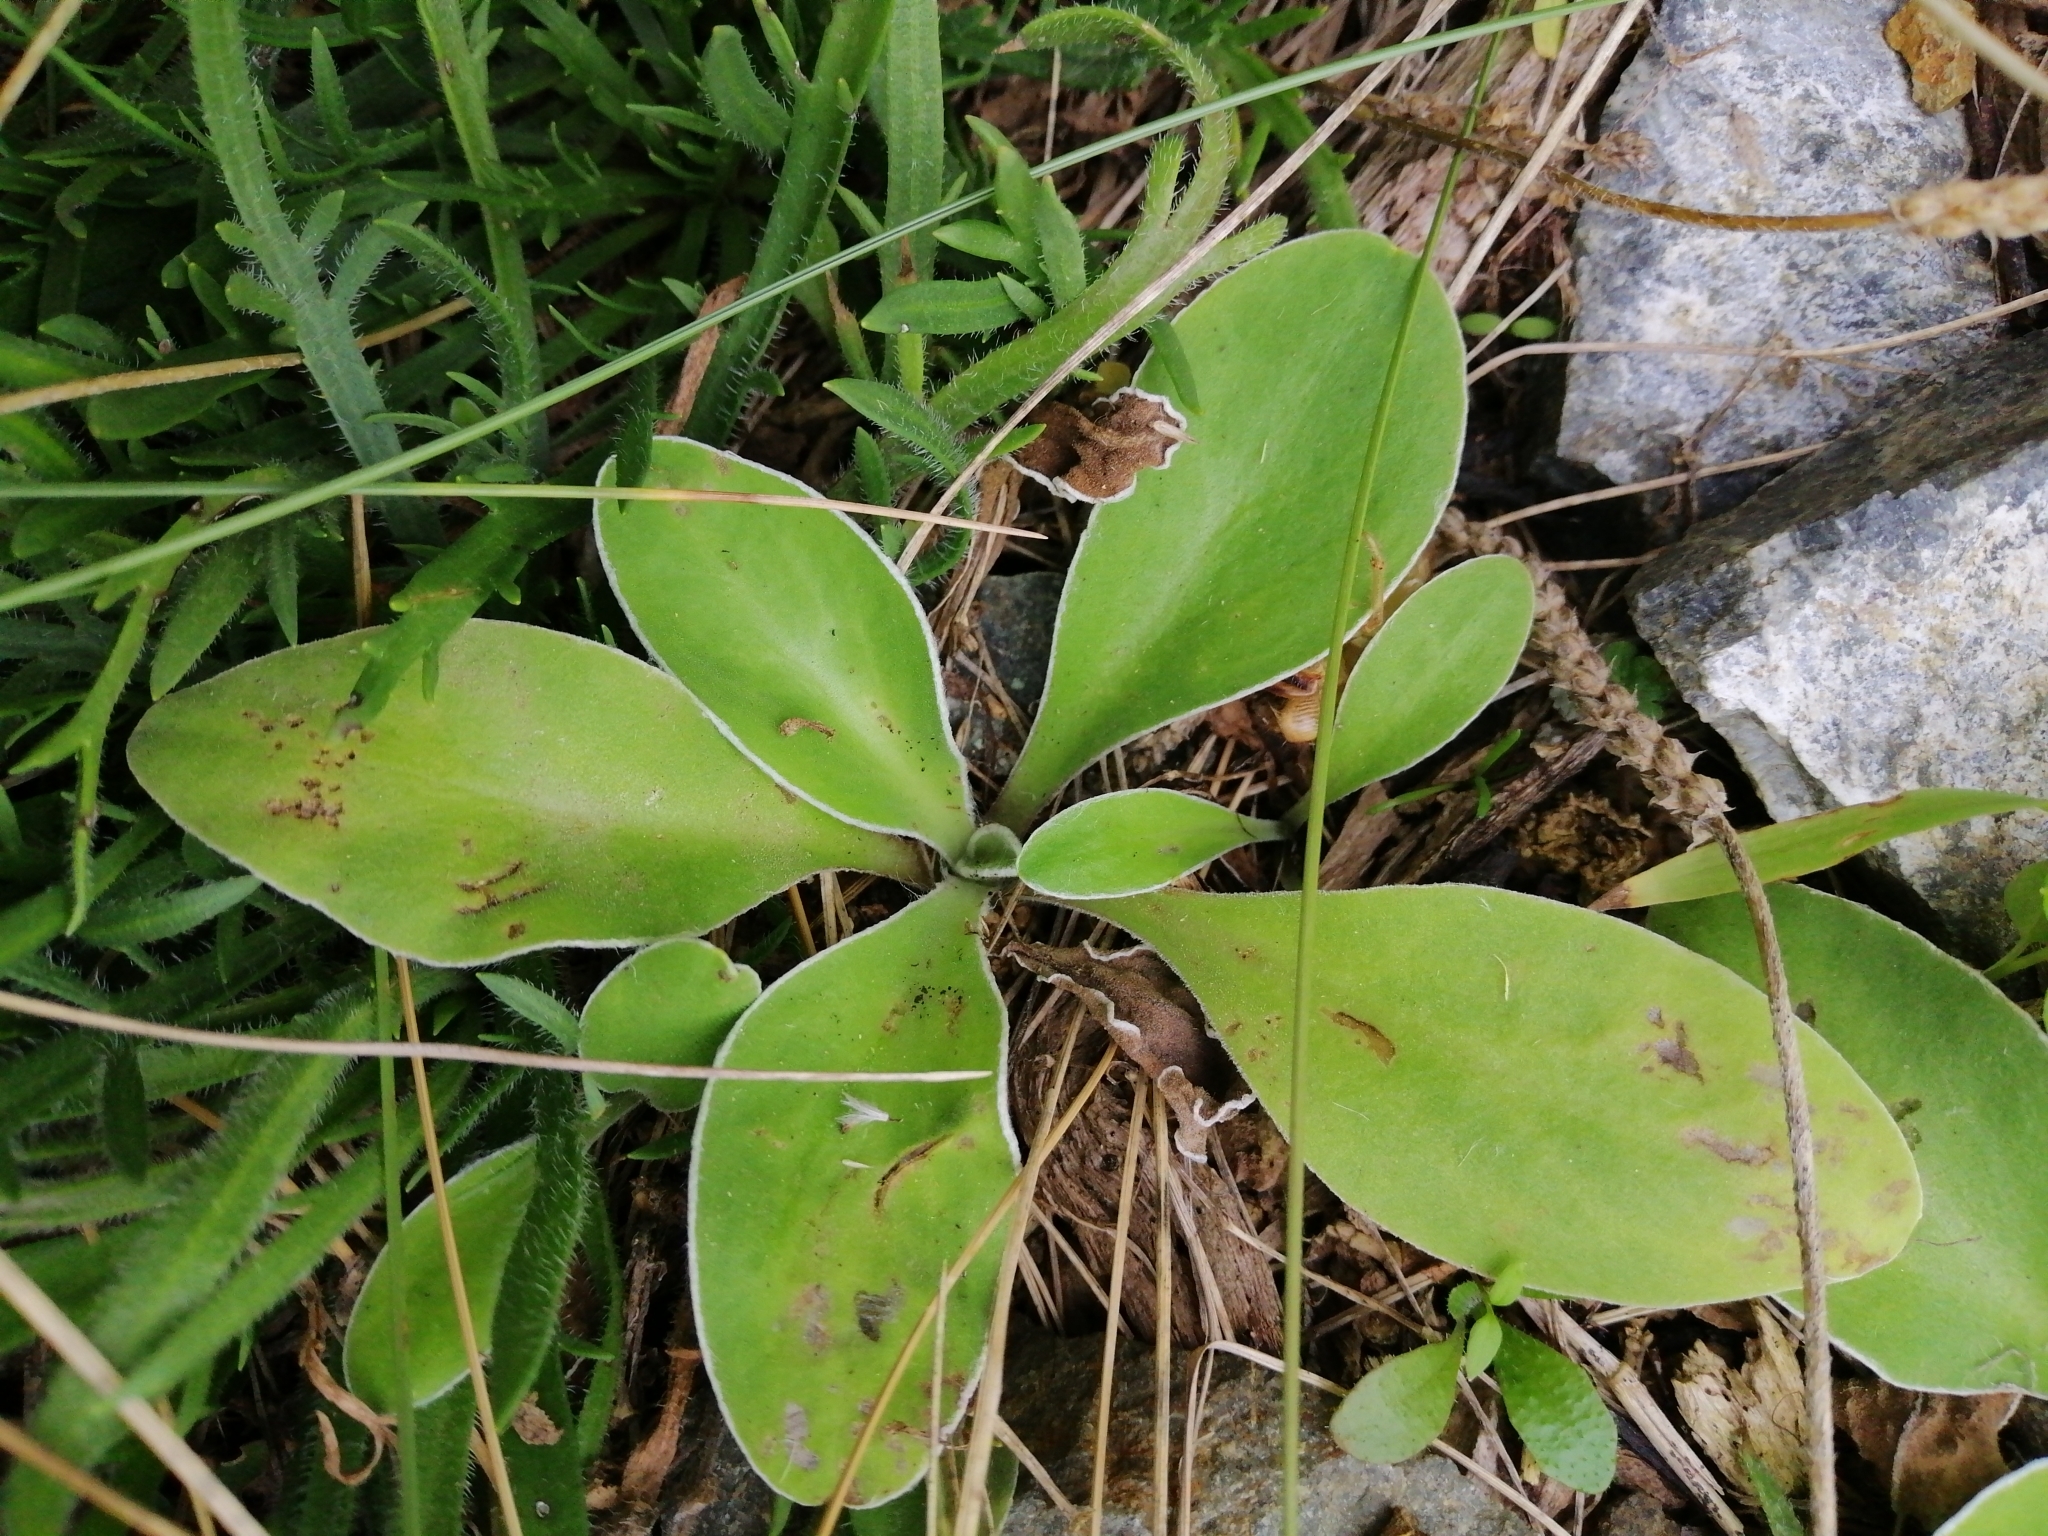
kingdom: Plantae
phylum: Tracheophyta
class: Magnoliopsida
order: Asterales
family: Asteraceae
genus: Craspedia
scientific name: Craspedia uniflora
